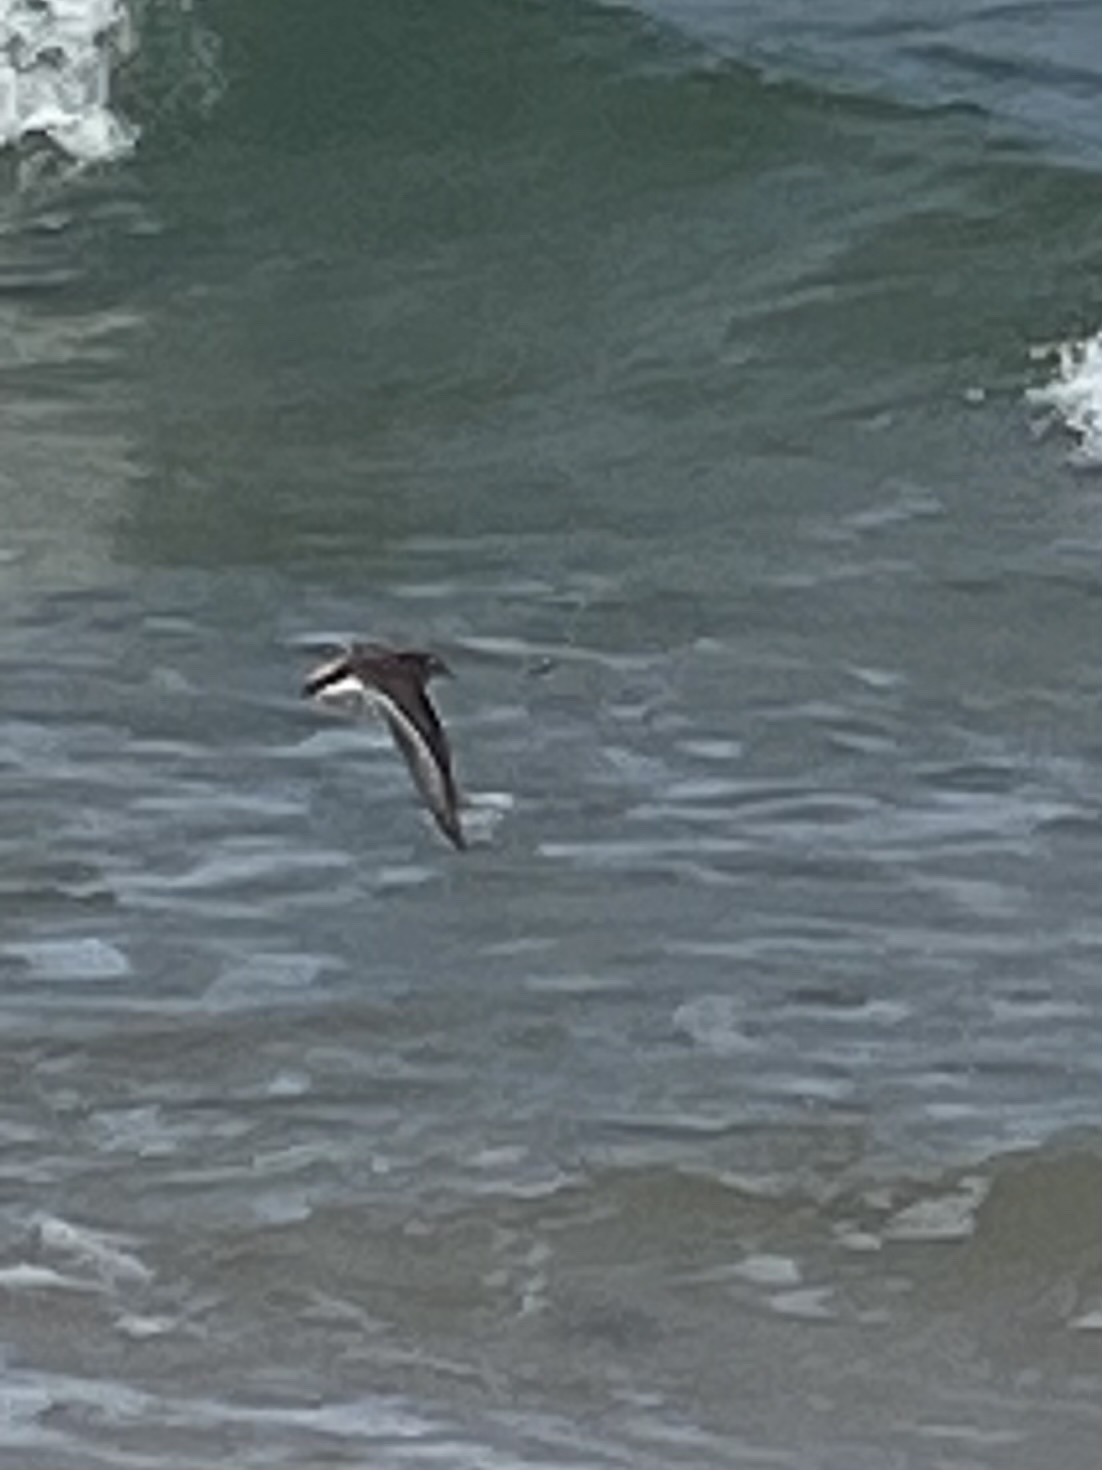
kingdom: Animalia
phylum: Chordata
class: Aves
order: Charadriiformes
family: Scolopacidae
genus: Actitis
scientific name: Actitis macularius
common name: Spotted sandpiper
